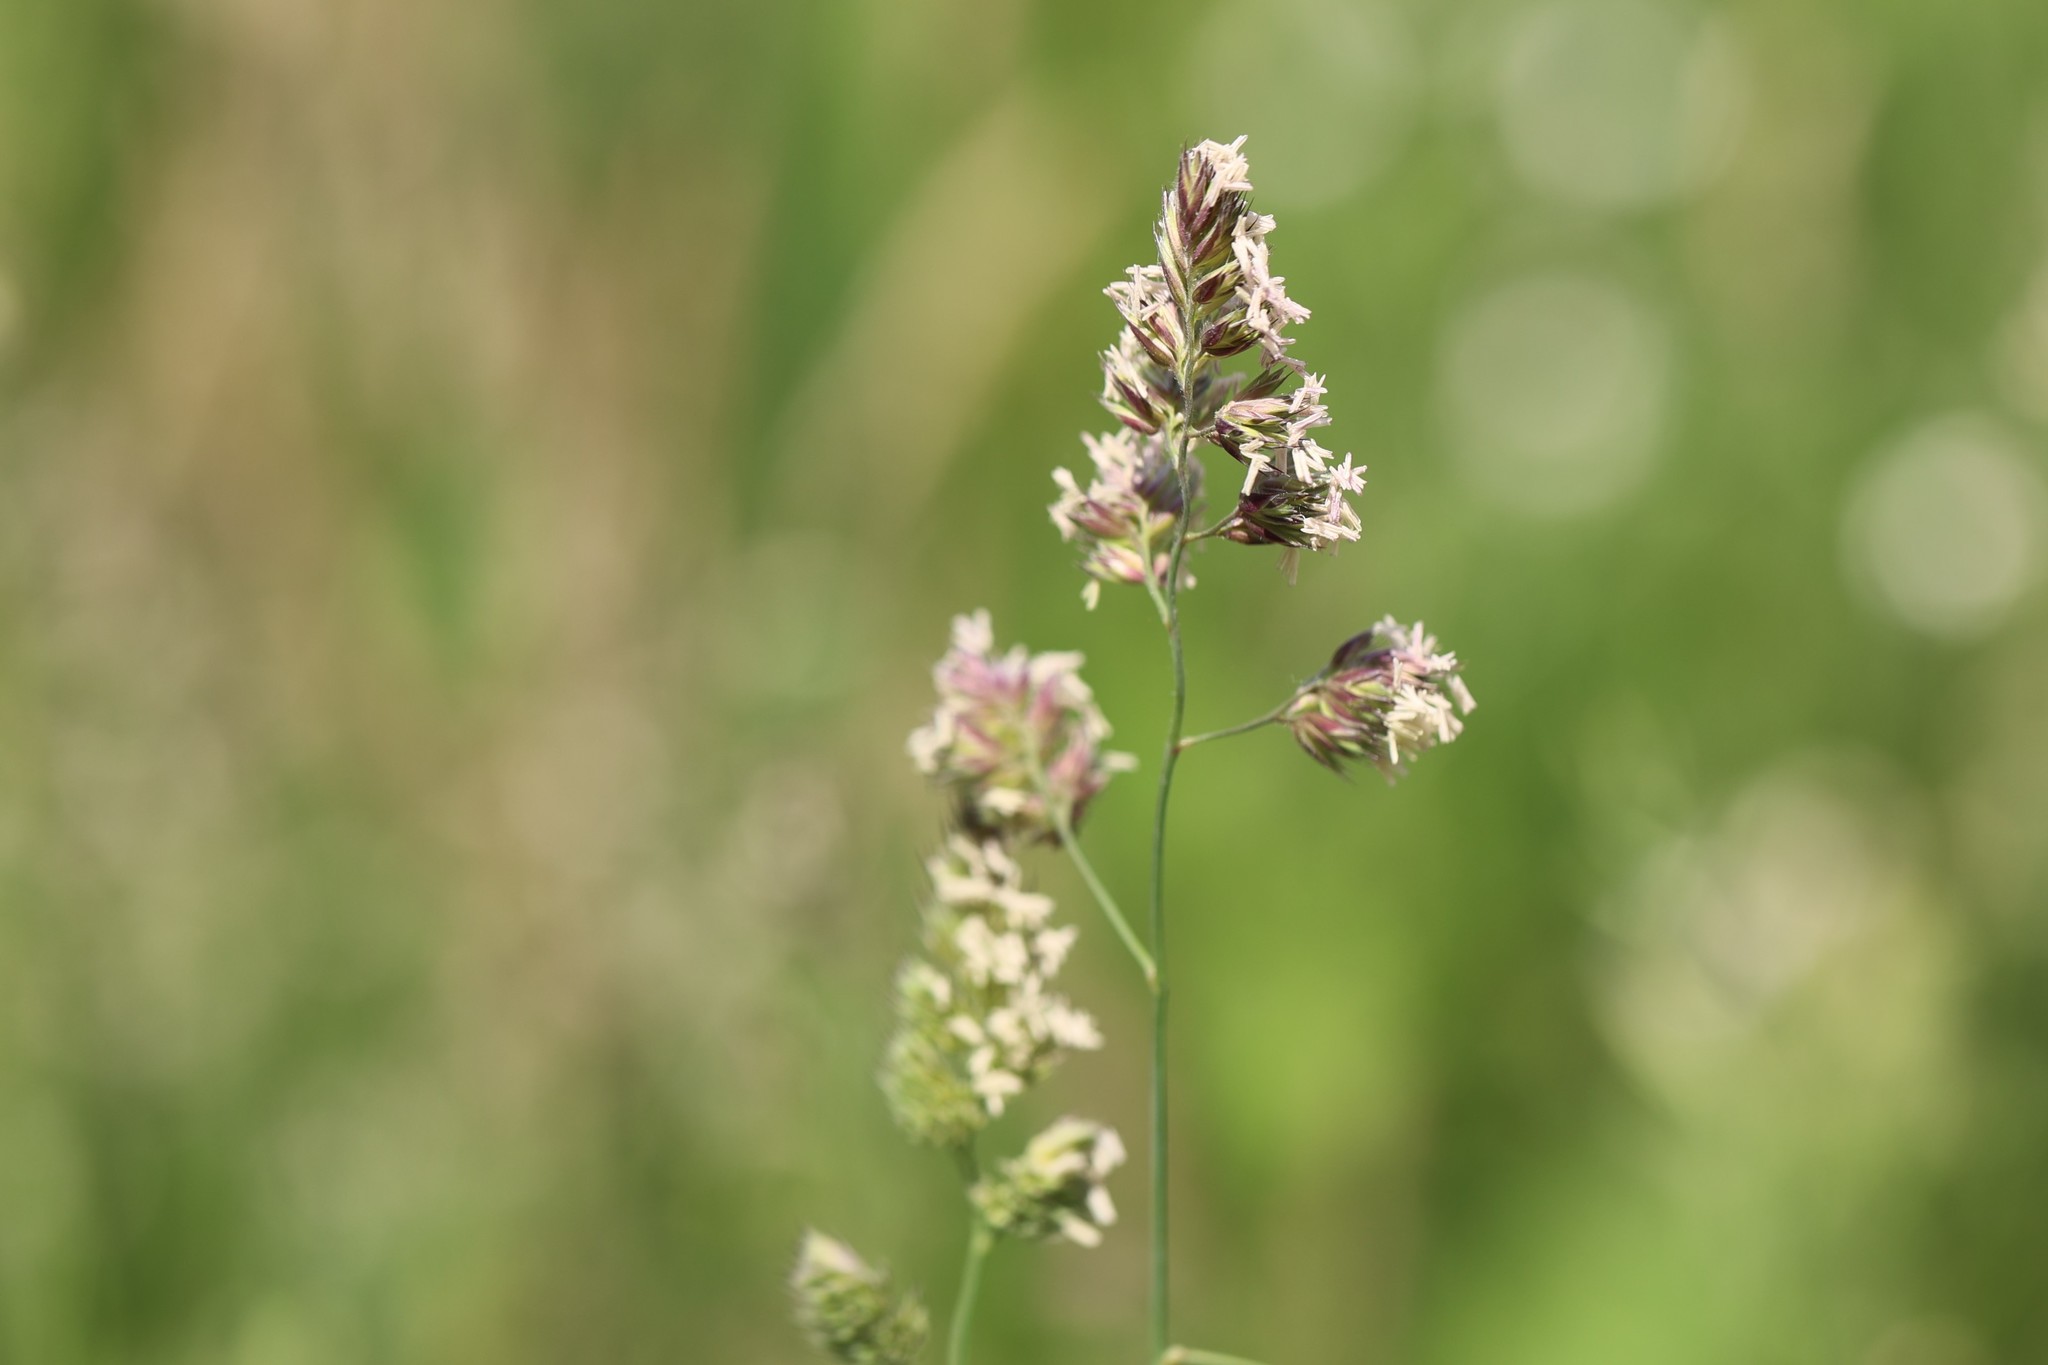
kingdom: Plantae
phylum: Tracheophyta
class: Liliopsida
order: Poales
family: Poaceae
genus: Dactylis
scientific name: Dactylis glomerata
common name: Orchardgrass
